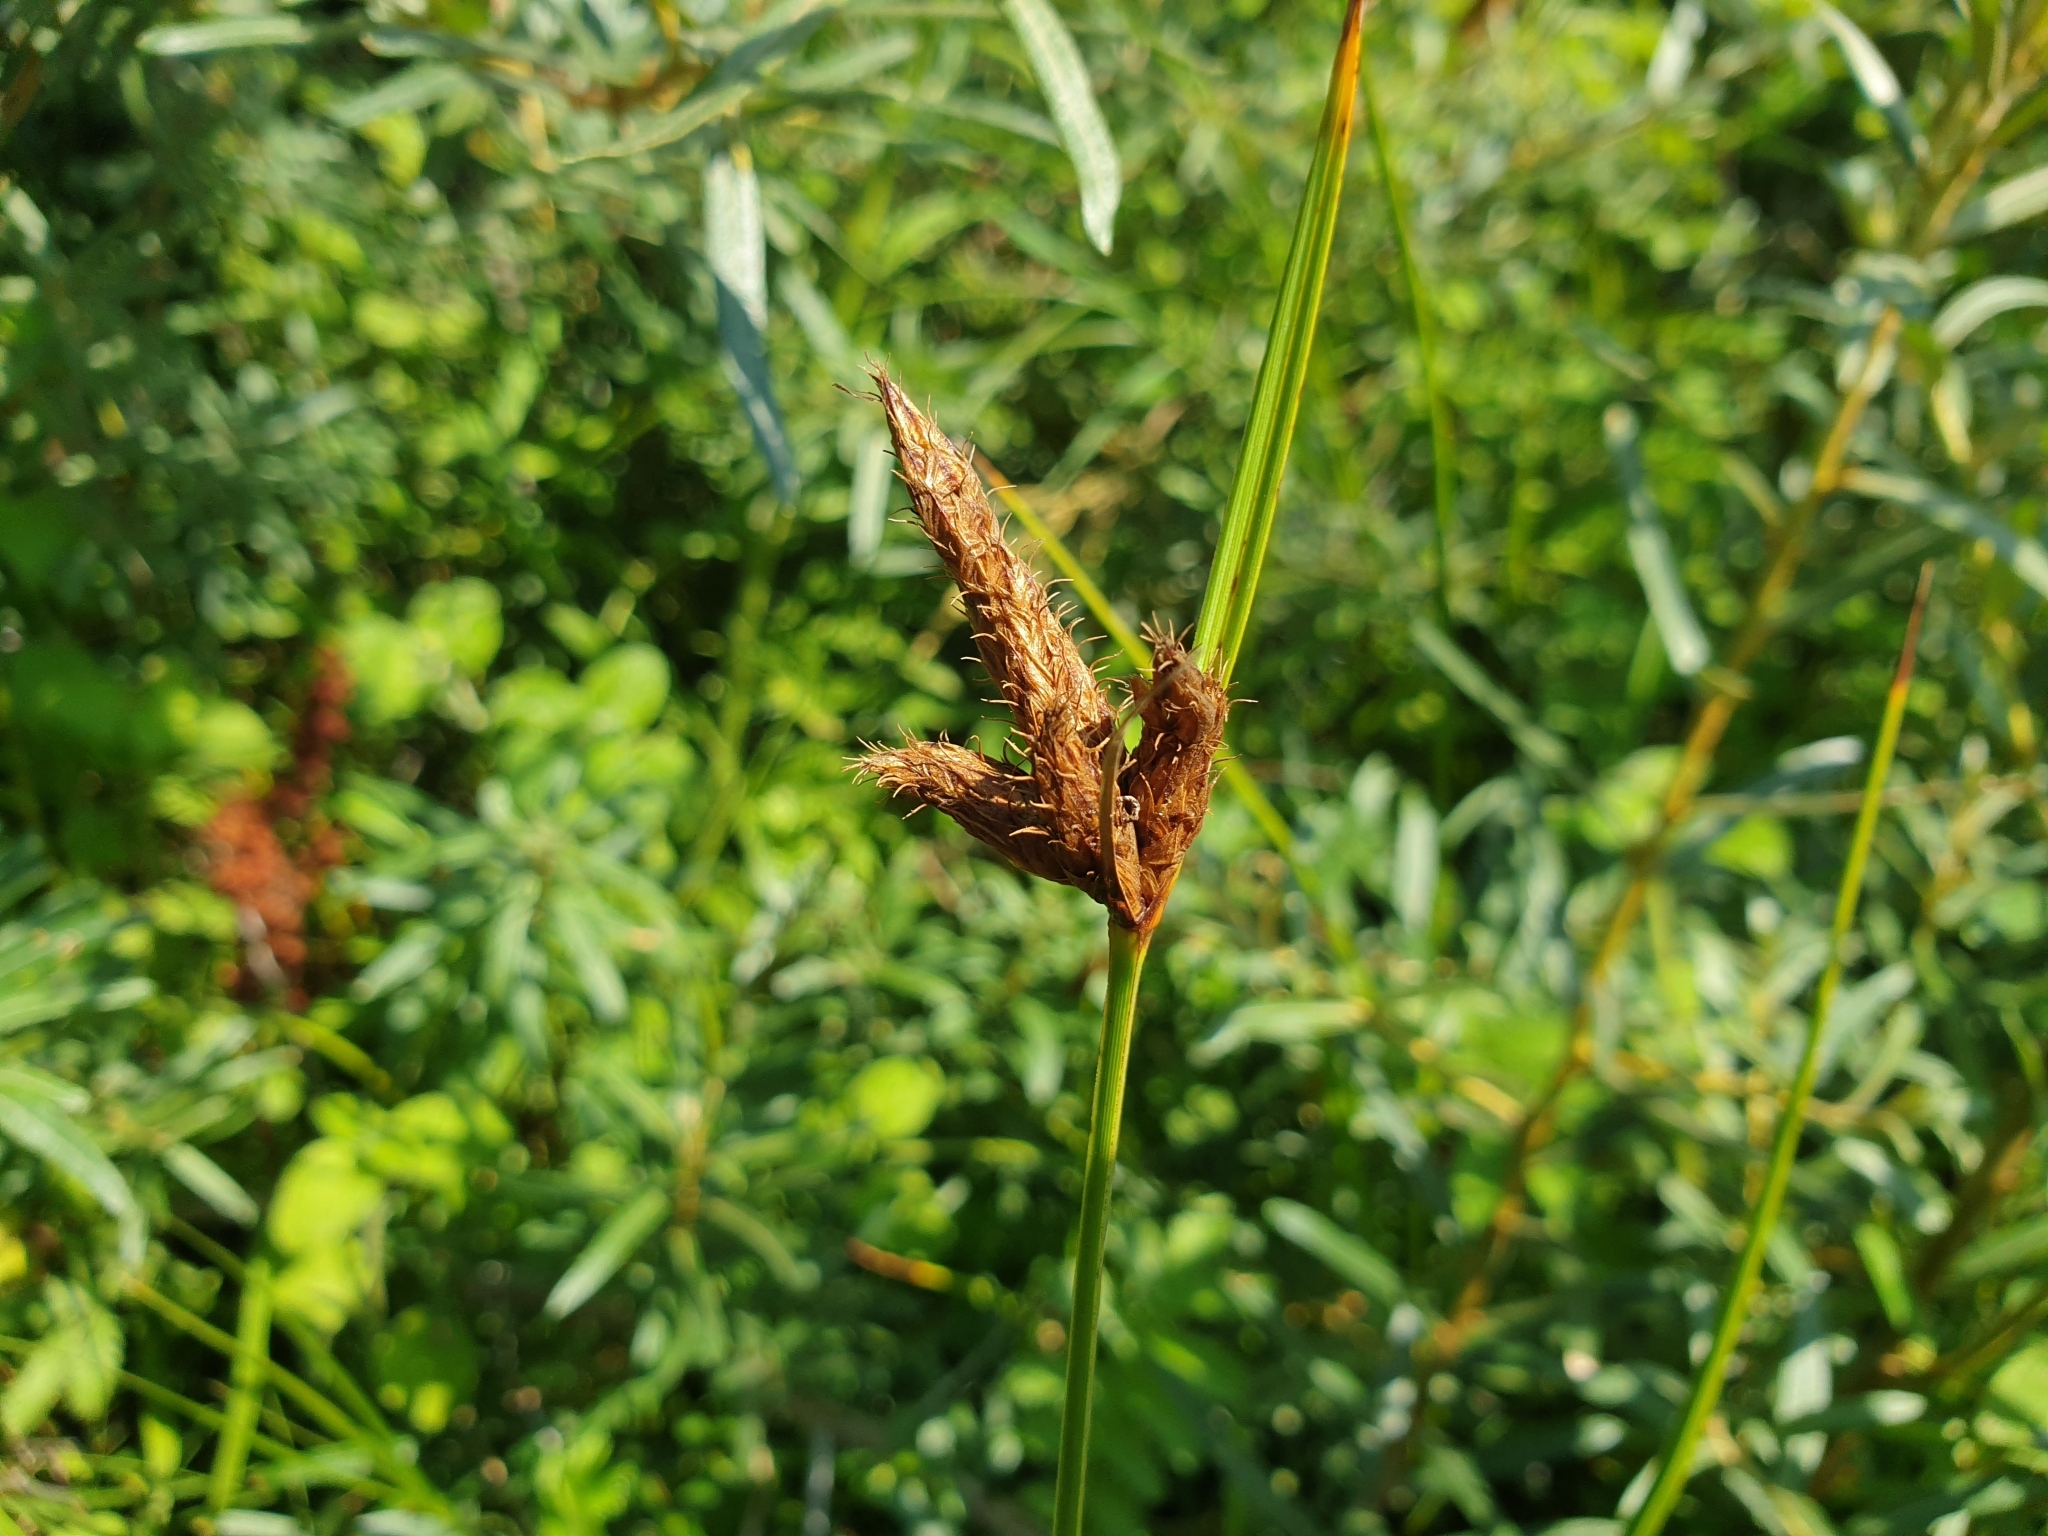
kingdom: Plantae
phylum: Tracheophyta
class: Liliopsida
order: Poales
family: Cyperaceae
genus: Bolboschoenus
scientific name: Bolboschoenus maritimus
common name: Sea club-rush
